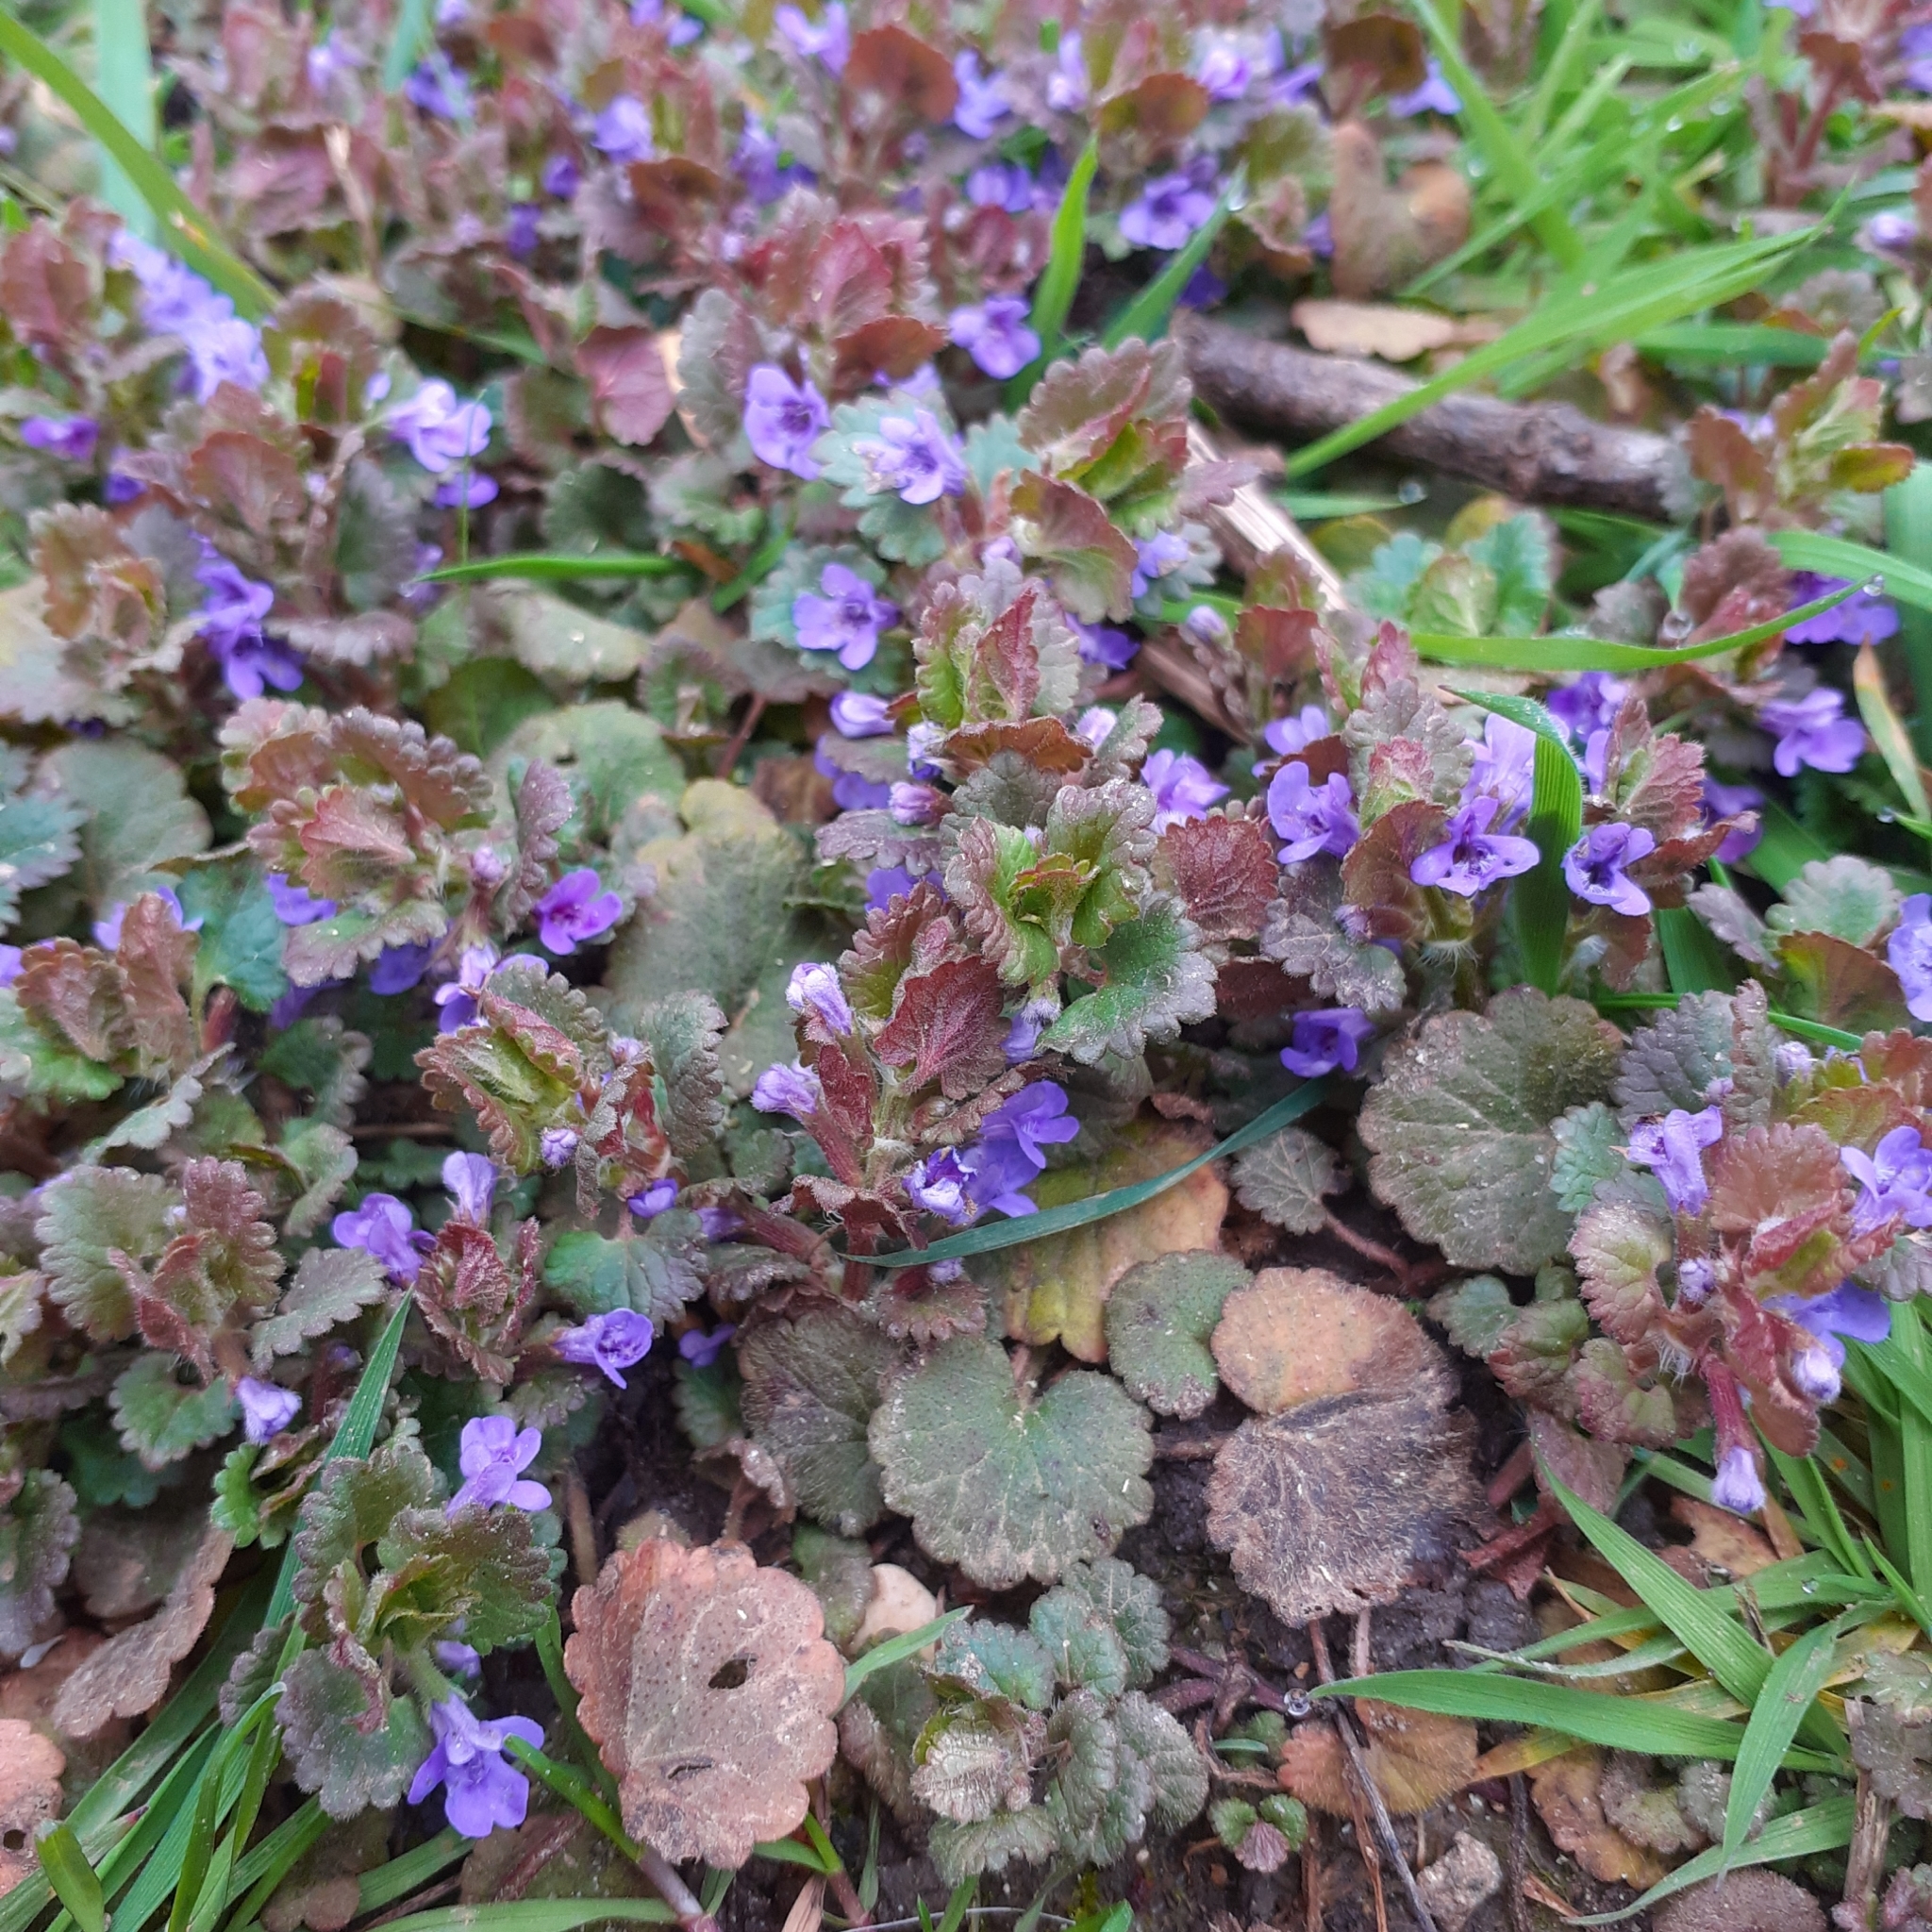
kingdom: Plantae
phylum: Tracheophyta
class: Magnoliopsida
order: Lamiales
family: Lamiaceae
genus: Glechoma
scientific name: Glechoma hederacea
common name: Ground ivy
